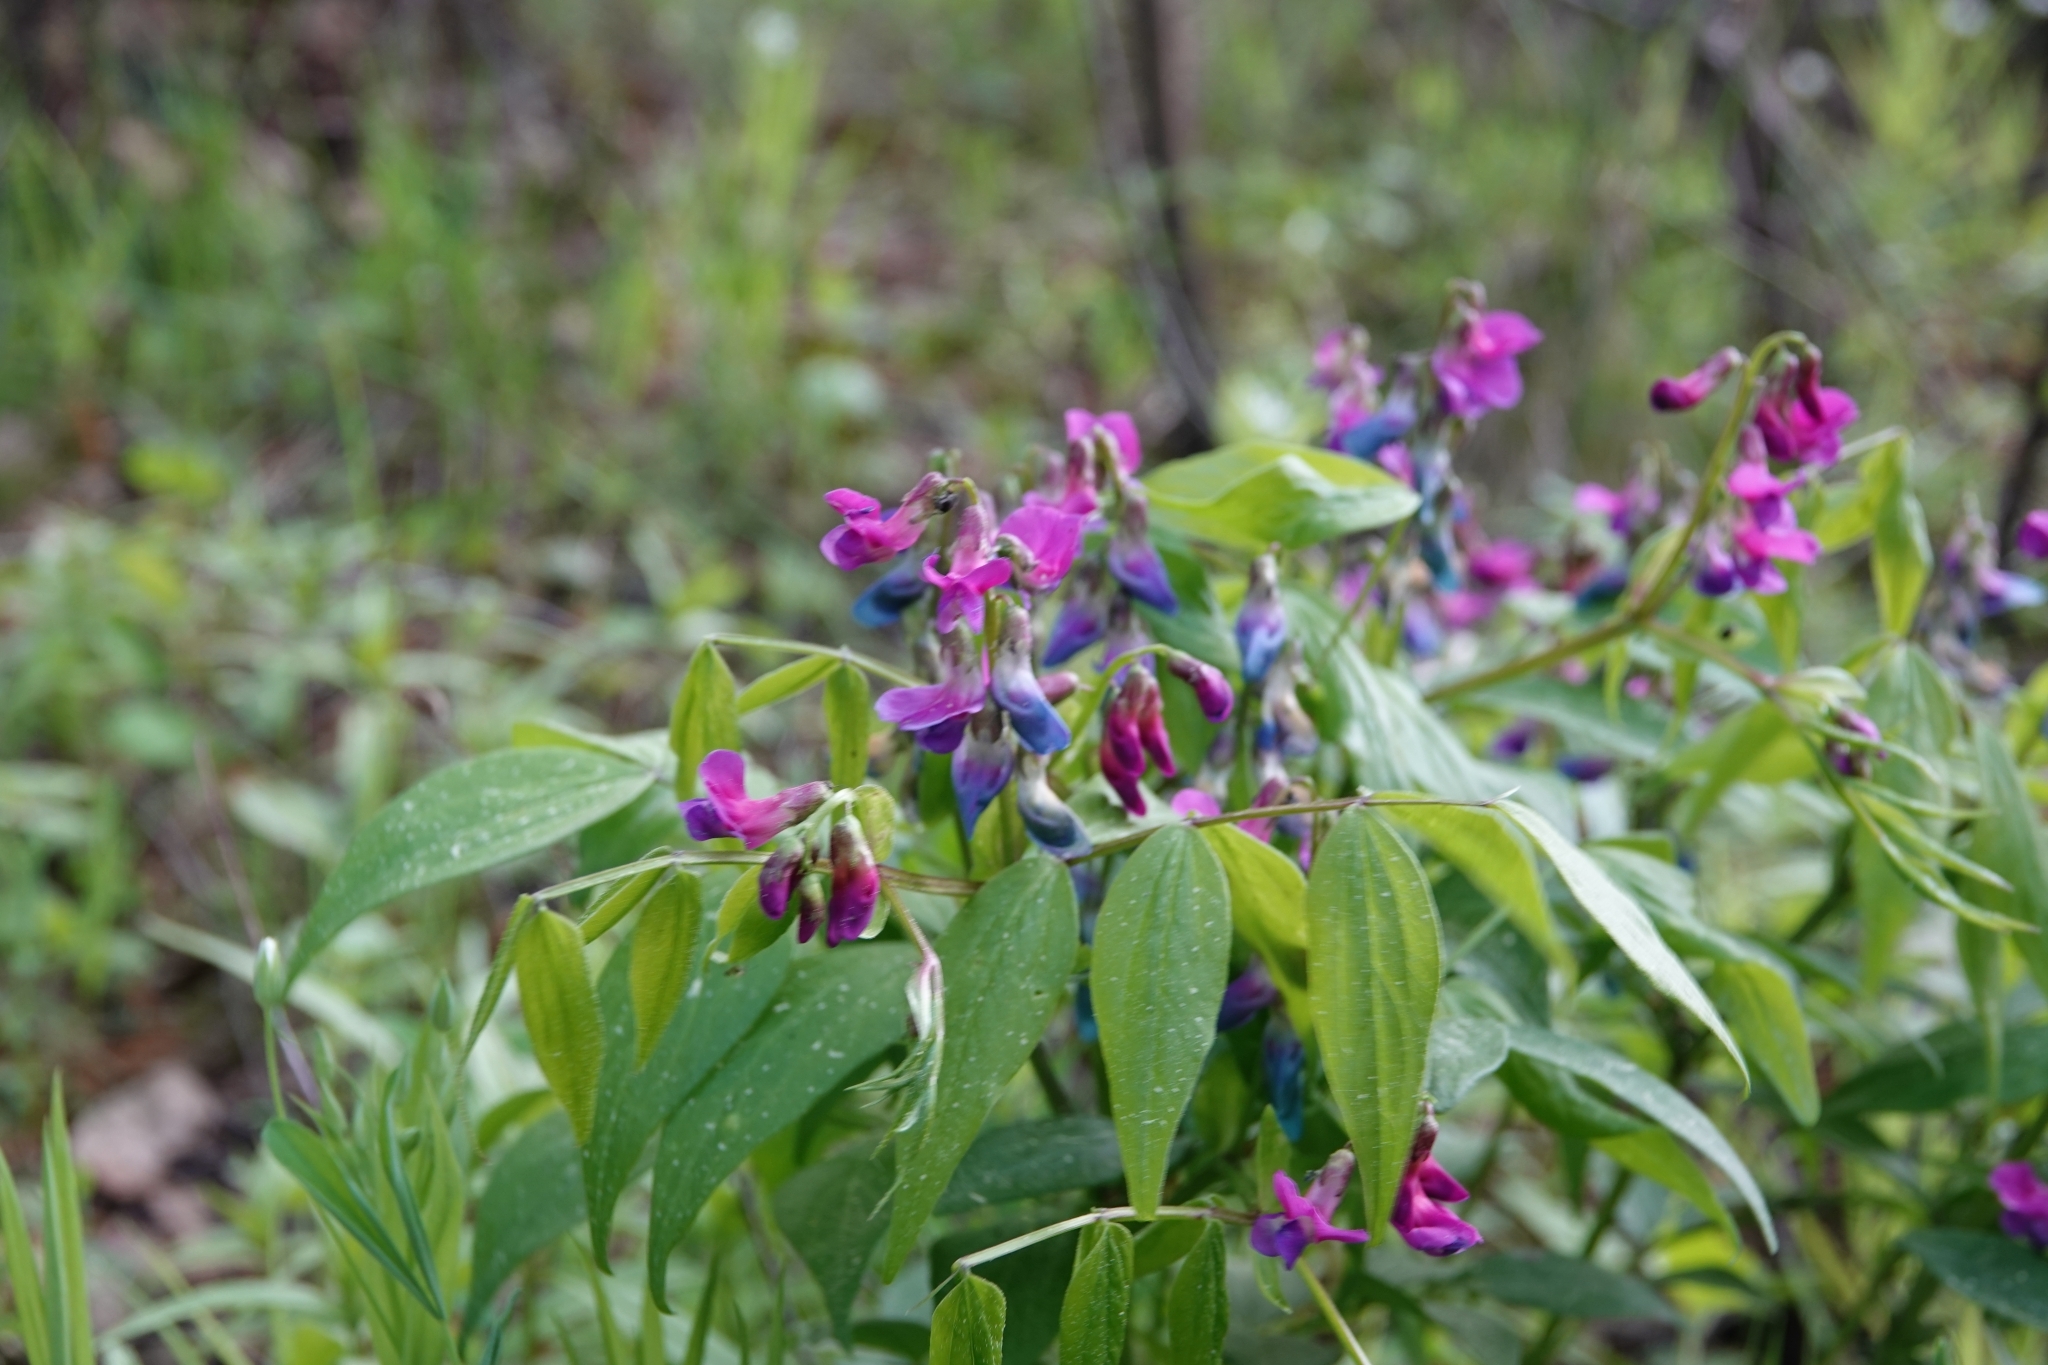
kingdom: Plantae
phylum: Tracheophyta
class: Magnoliopsida
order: Fabales
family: Fabaceae
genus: Lathyrus
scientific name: Lathyrus vernus
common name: Spring pea
